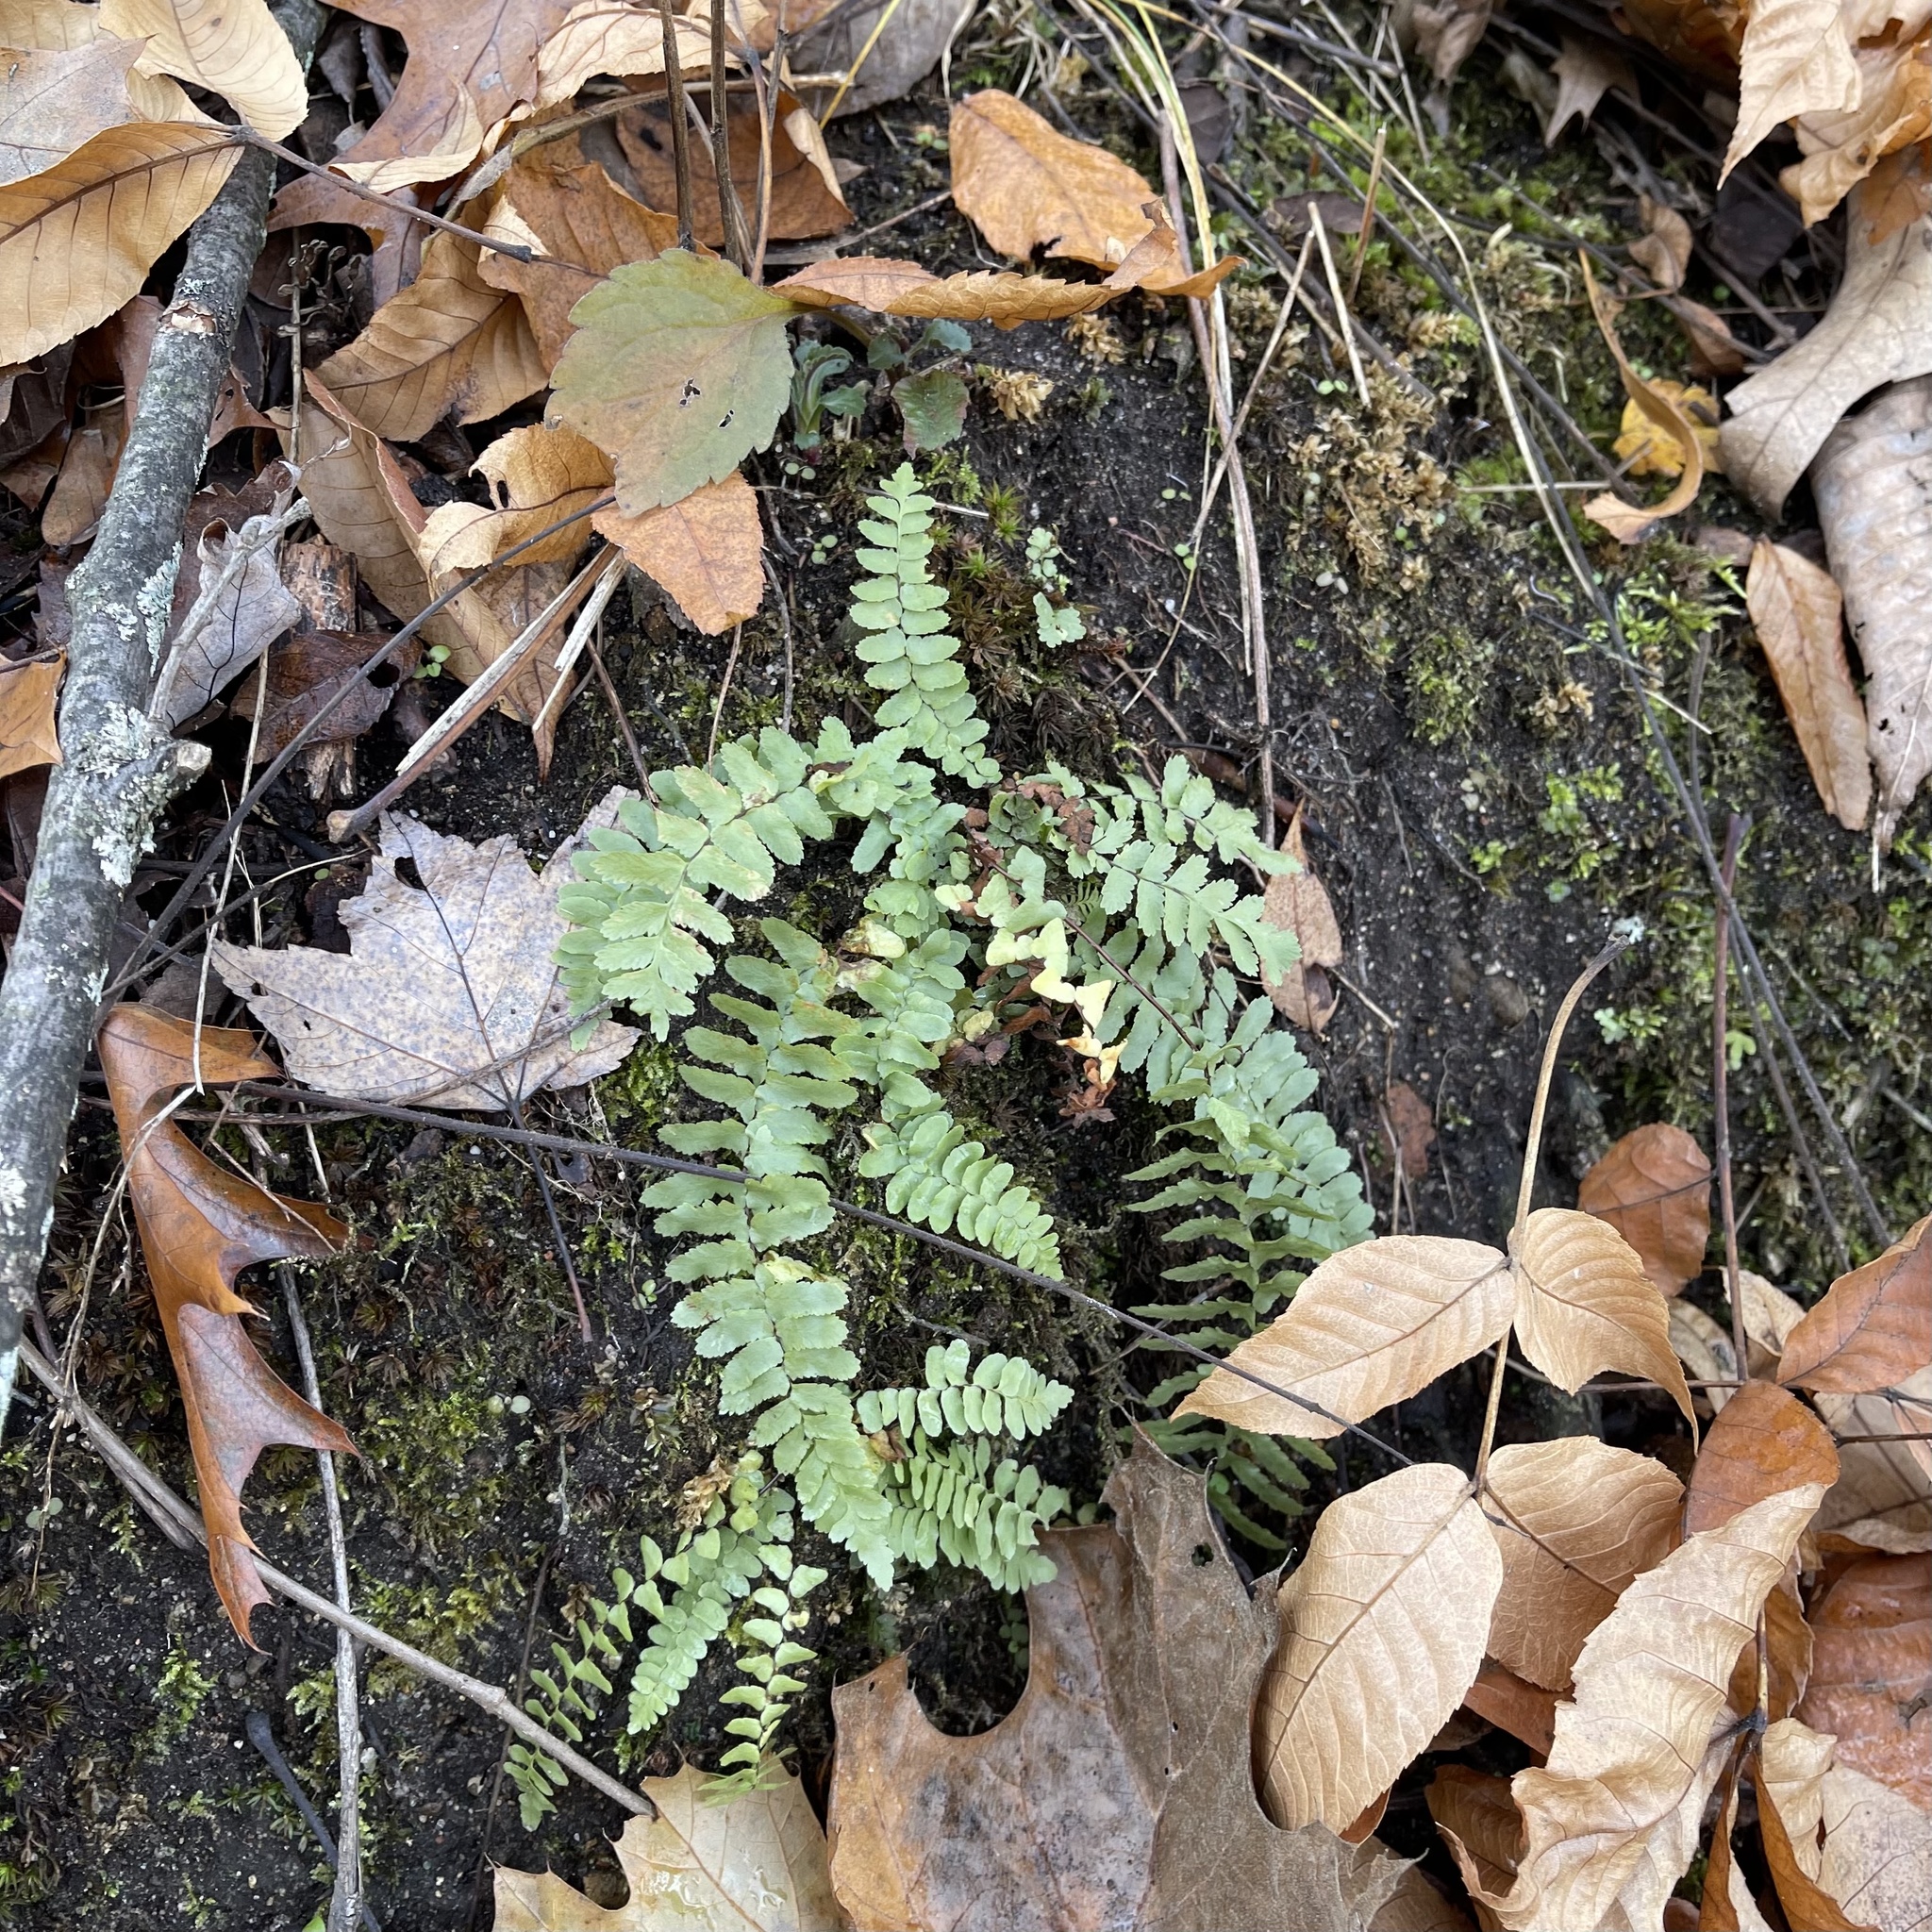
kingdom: Plantae
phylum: Tracheophyta
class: Polypodiopsida
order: Polypodiales
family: Aspleniaceae
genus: Asplenium
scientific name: Asplenium platyneuron
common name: Ebony spleenwort
